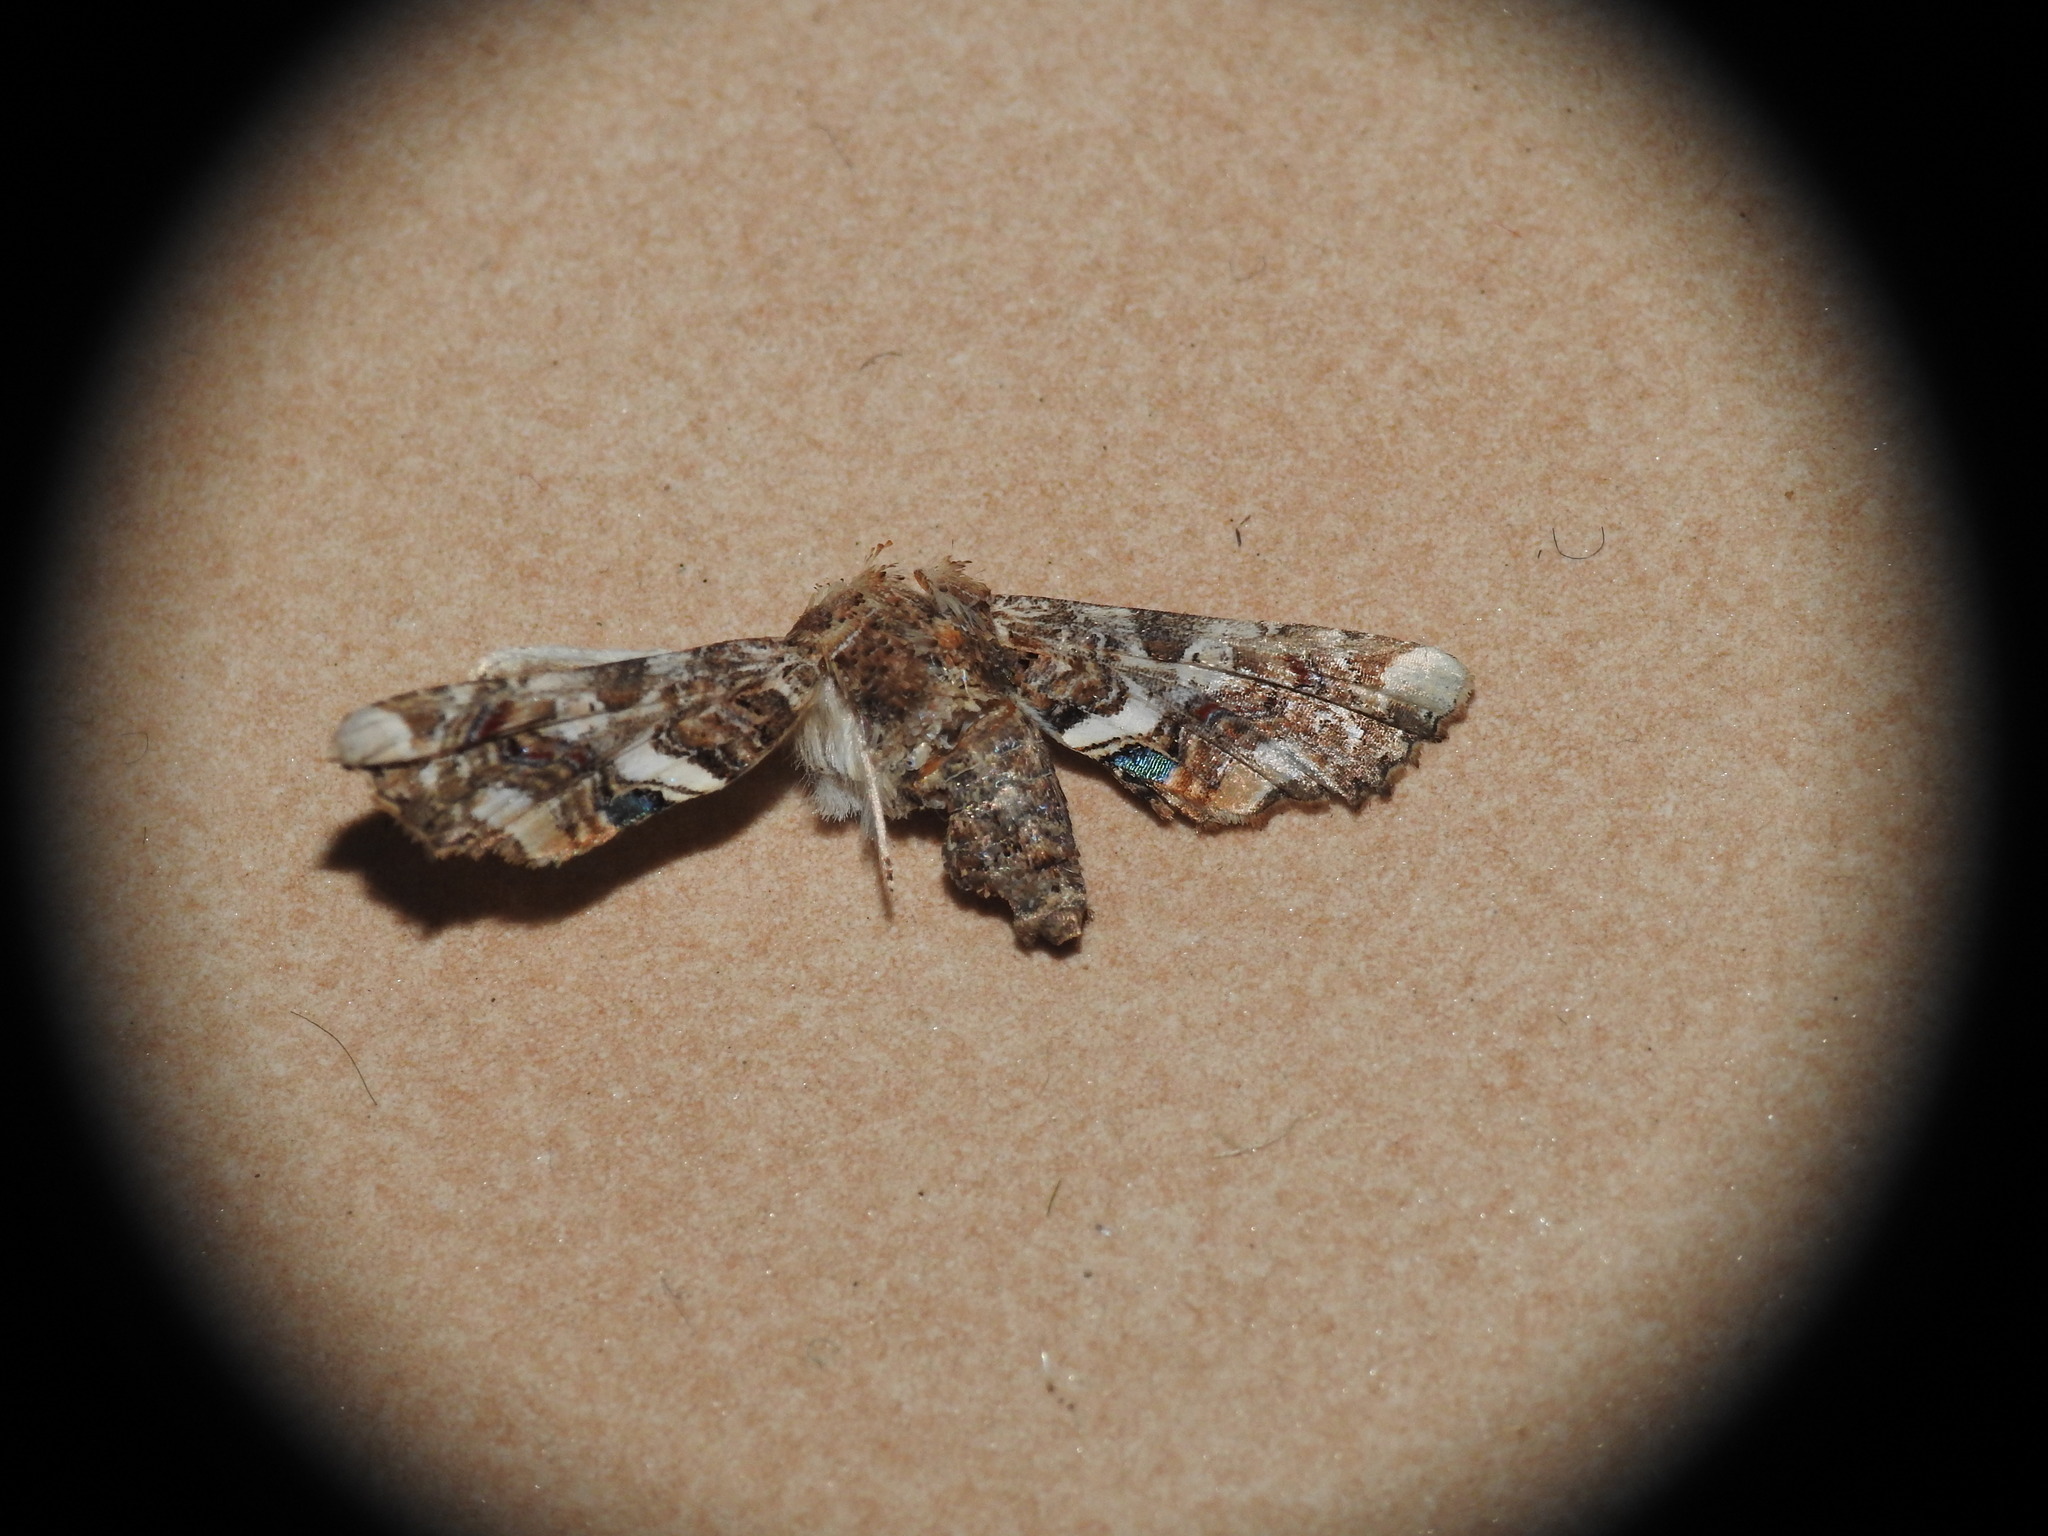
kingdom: Animalia
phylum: Arthropoda
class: Insecta
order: Lepidoptera
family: Euteliidae
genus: Eutelia
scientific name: Eutelia adulatrix
